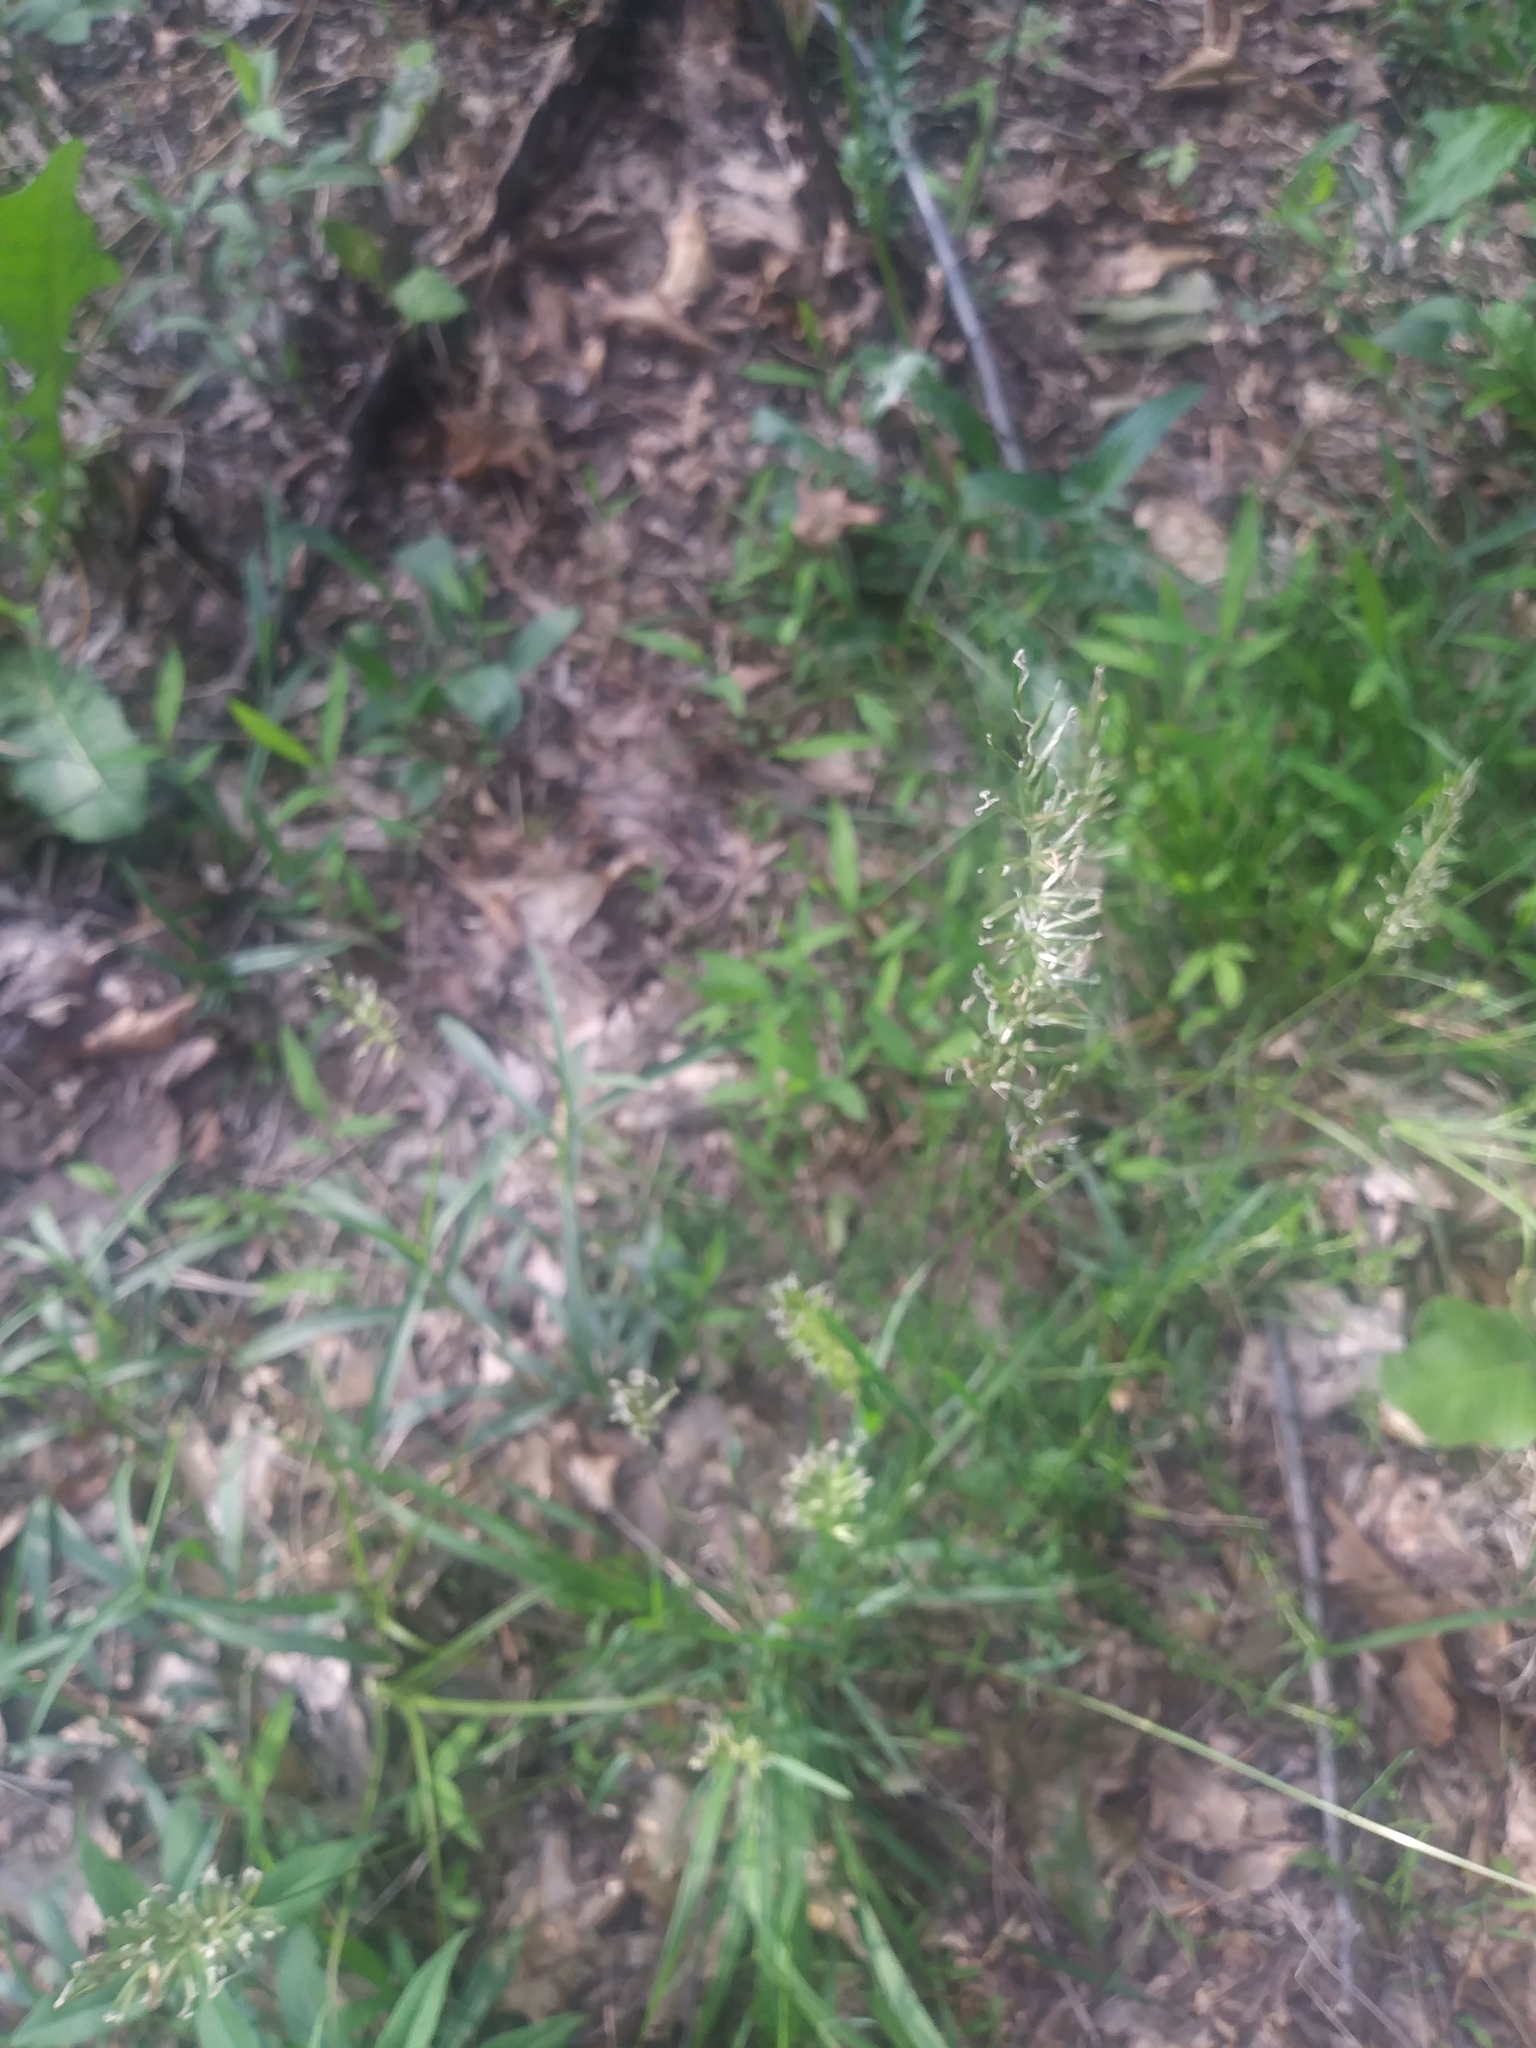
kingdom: Plantae
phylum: Tracheophyta
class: Liliopsida
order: Poales
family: Poaceae
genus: Anthoxanthum
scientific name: Anthoxanthum odoratum
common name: Sweet vernalgrass
